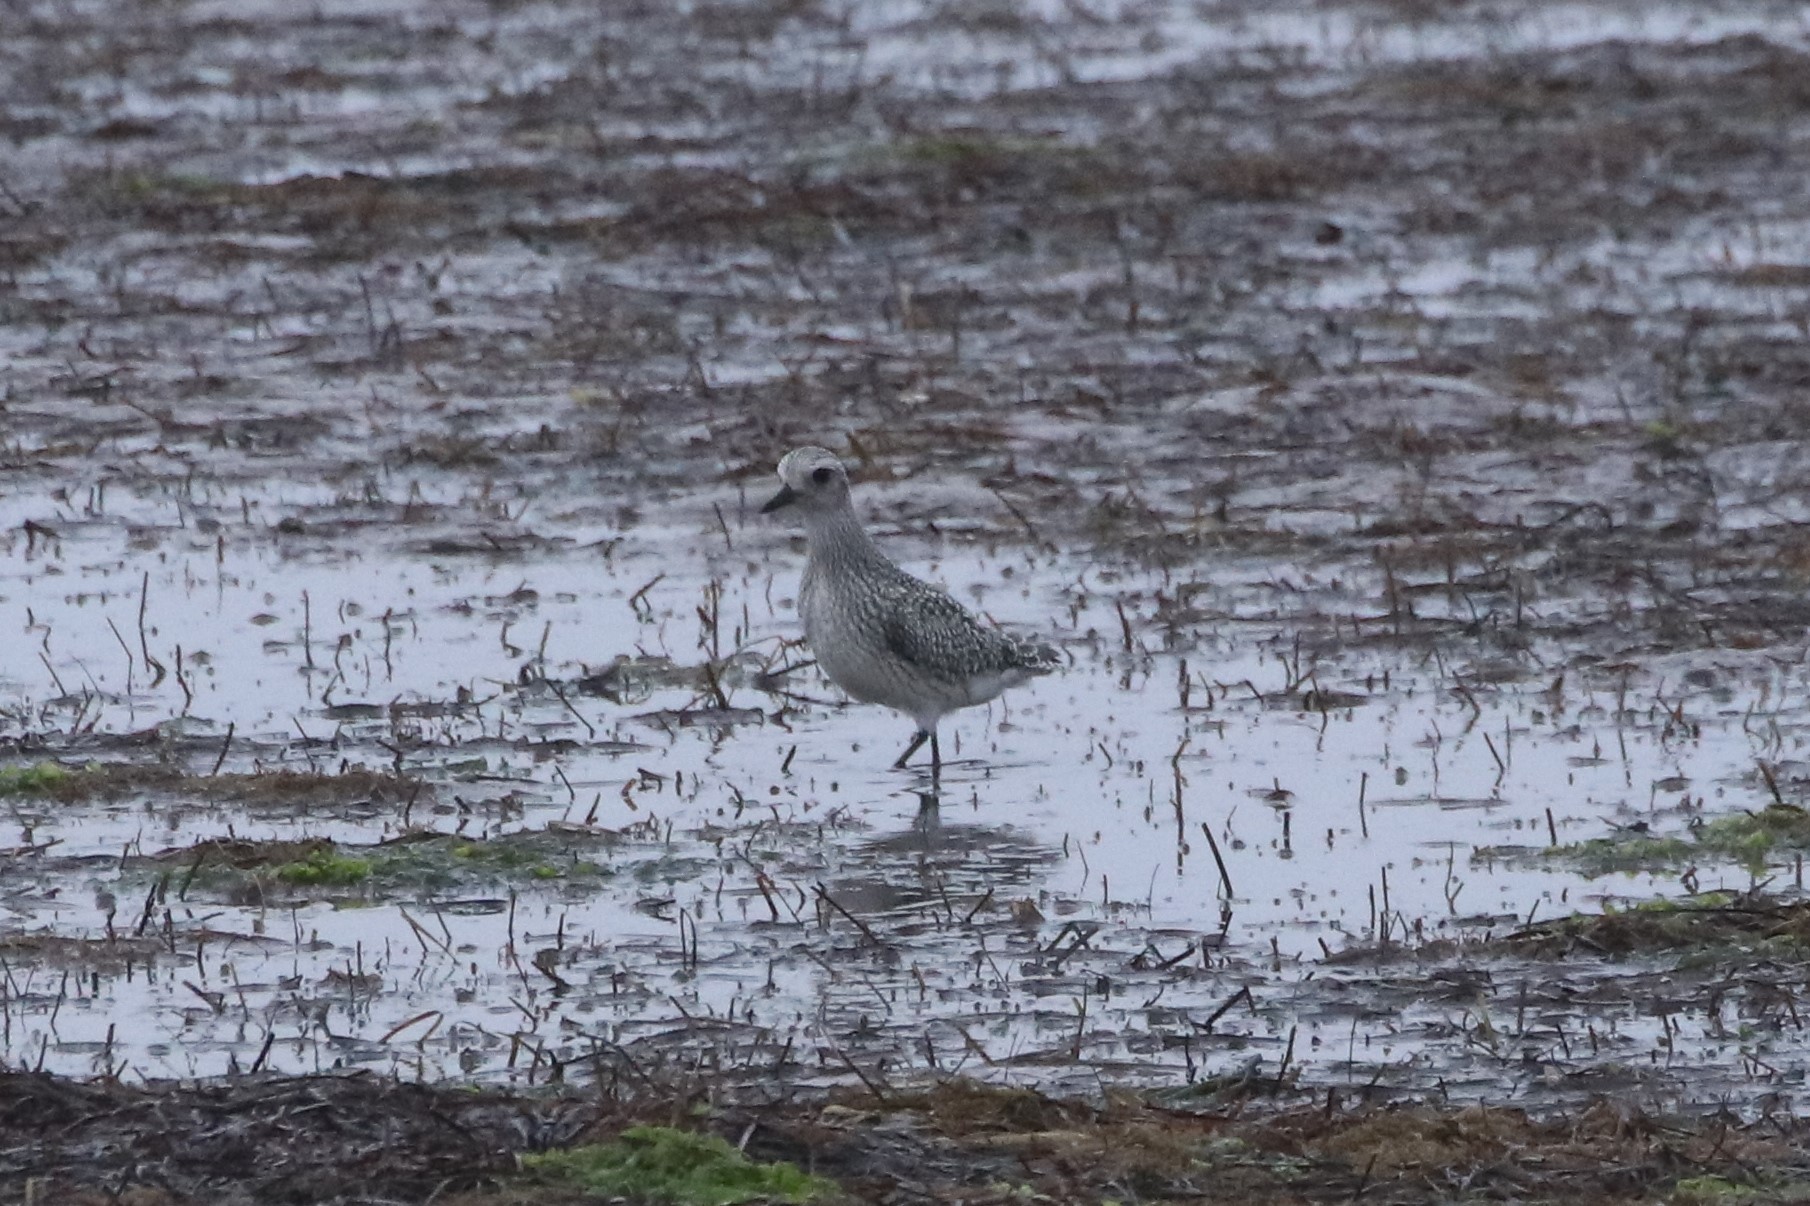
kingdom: Animalia
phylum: Chordata
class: Aves
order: Charadriiformes
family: Charadriidae
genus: Pluvialis
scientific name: Pluvialis squatarola
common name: Grey plover
